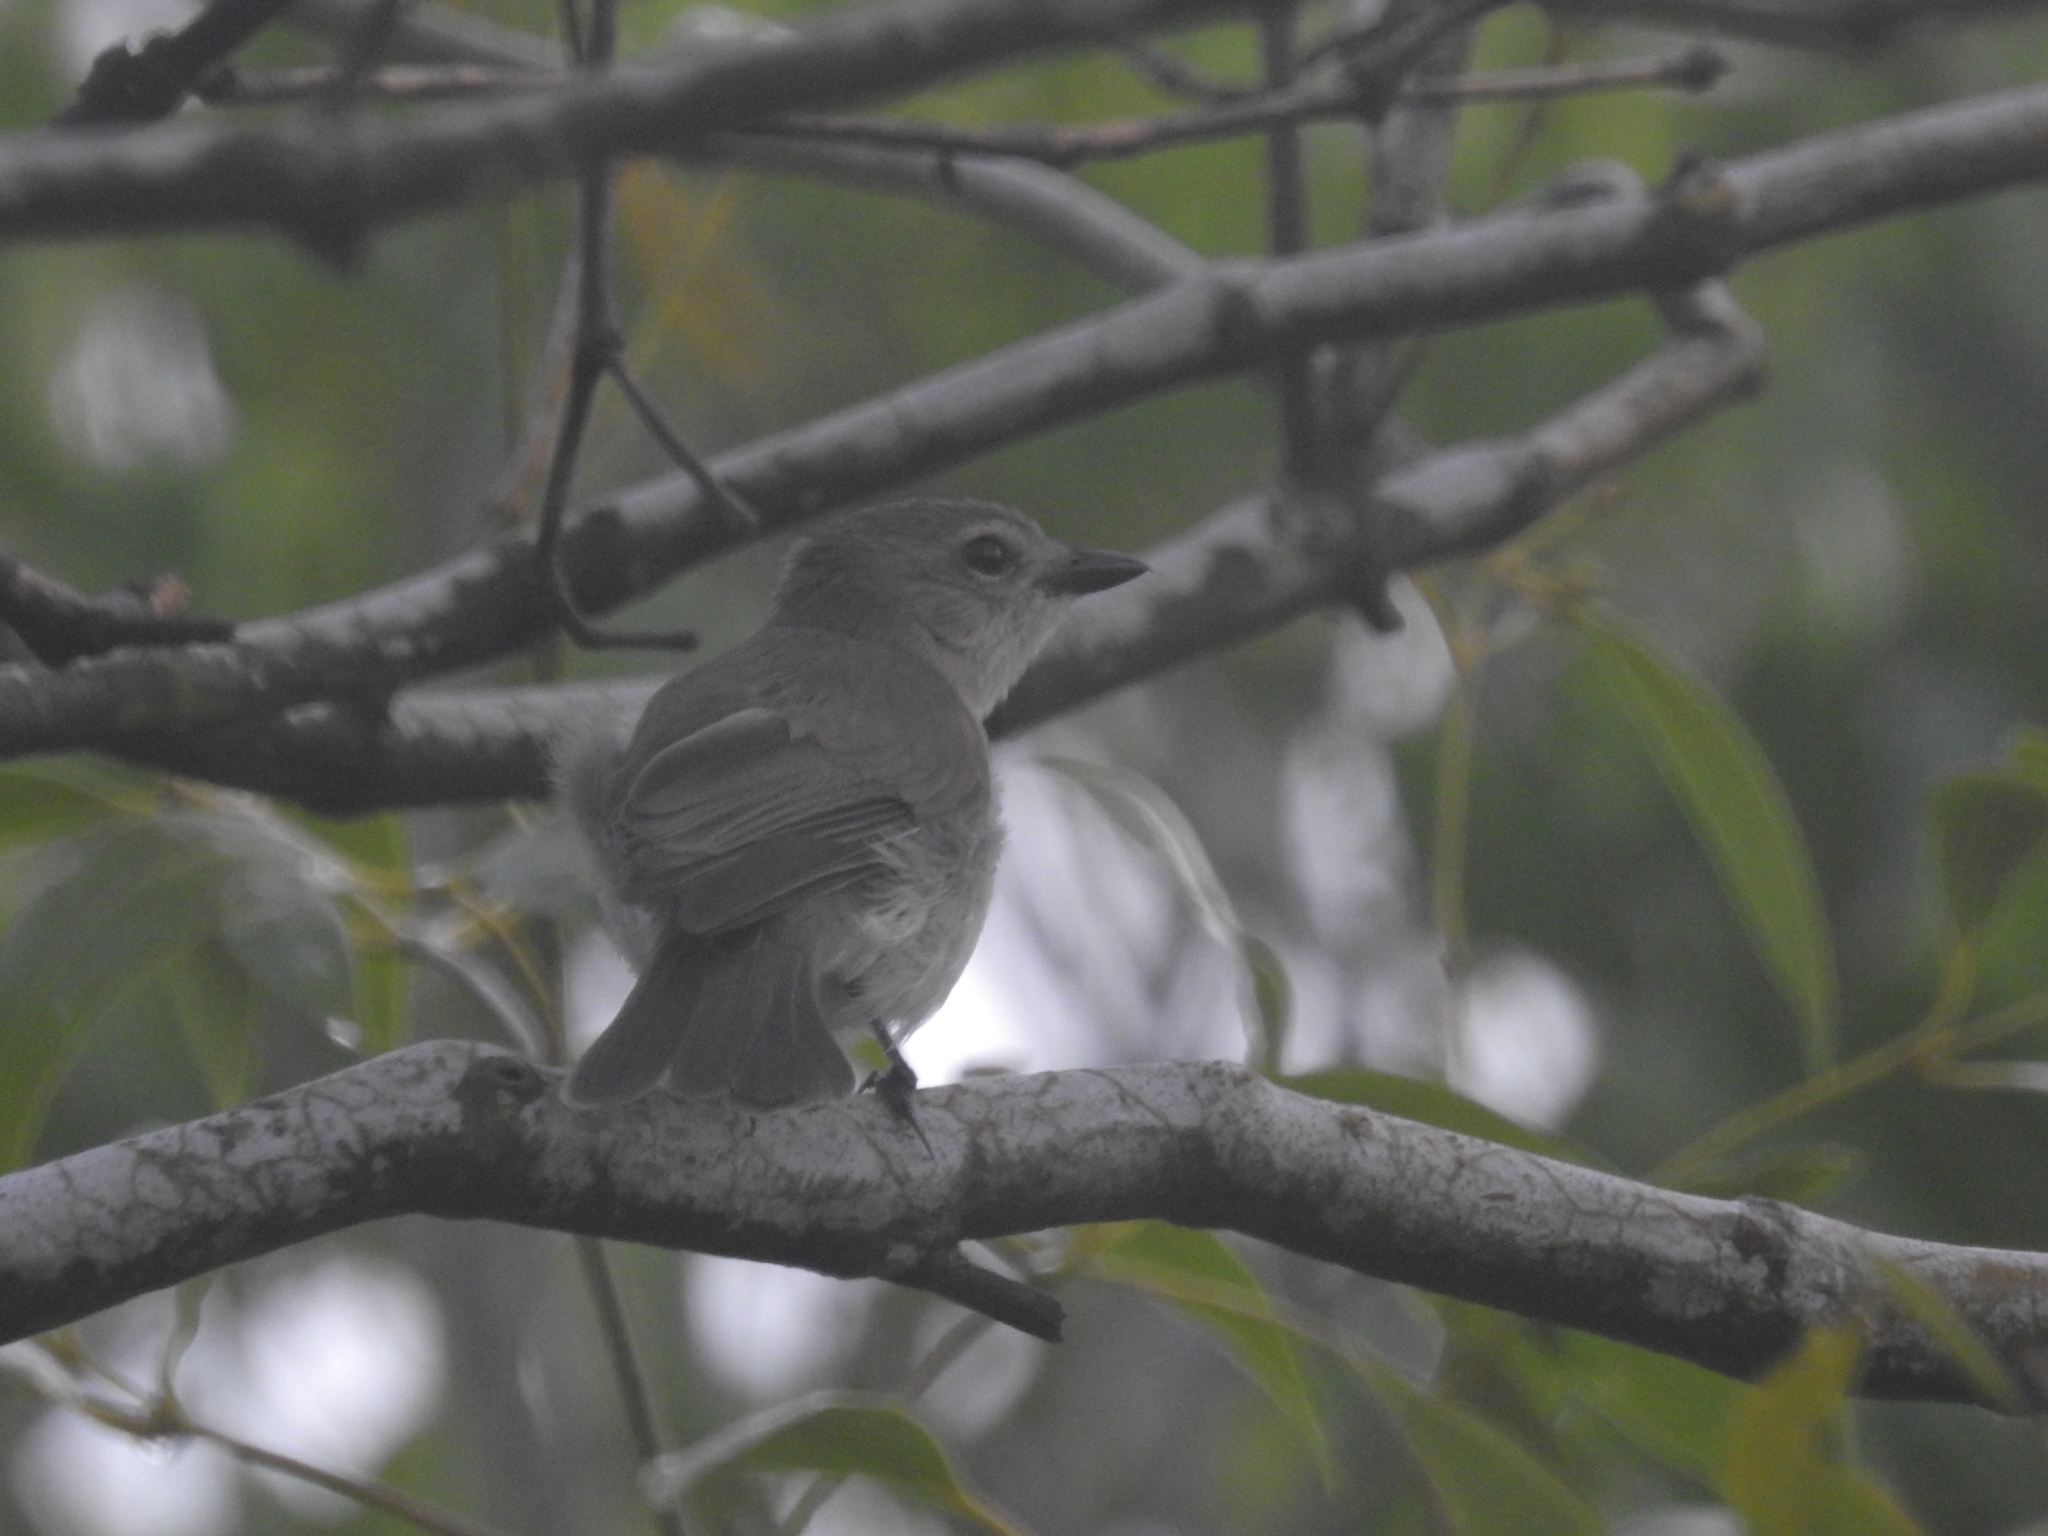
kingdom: Animalia
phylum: Chordata
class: Aves
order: Passeriformes
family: Pachycephalidae
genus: Pachycephala
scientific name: Pachycephala simplex
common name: Grey whistler
